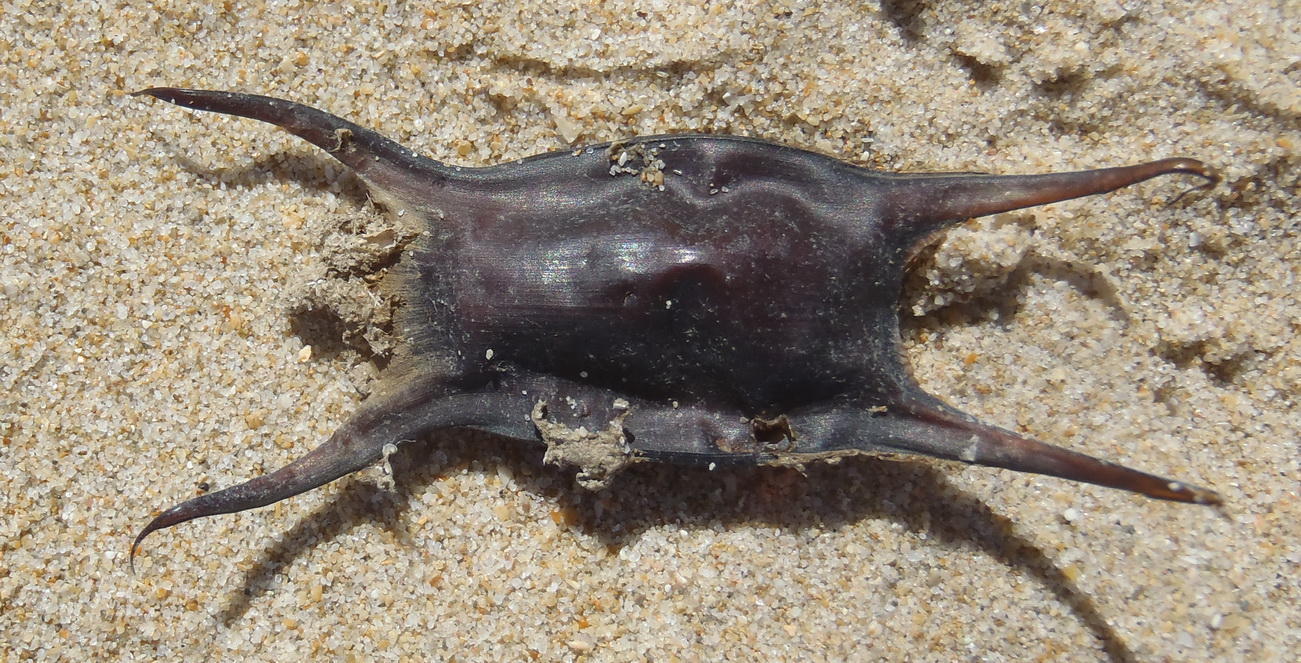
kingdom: Animalia
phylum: Chordata
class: Elasmobranchii
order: Rajiformes
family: Rajidae
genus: Raja
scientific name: Raja ocellifera
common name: Twineye skate
